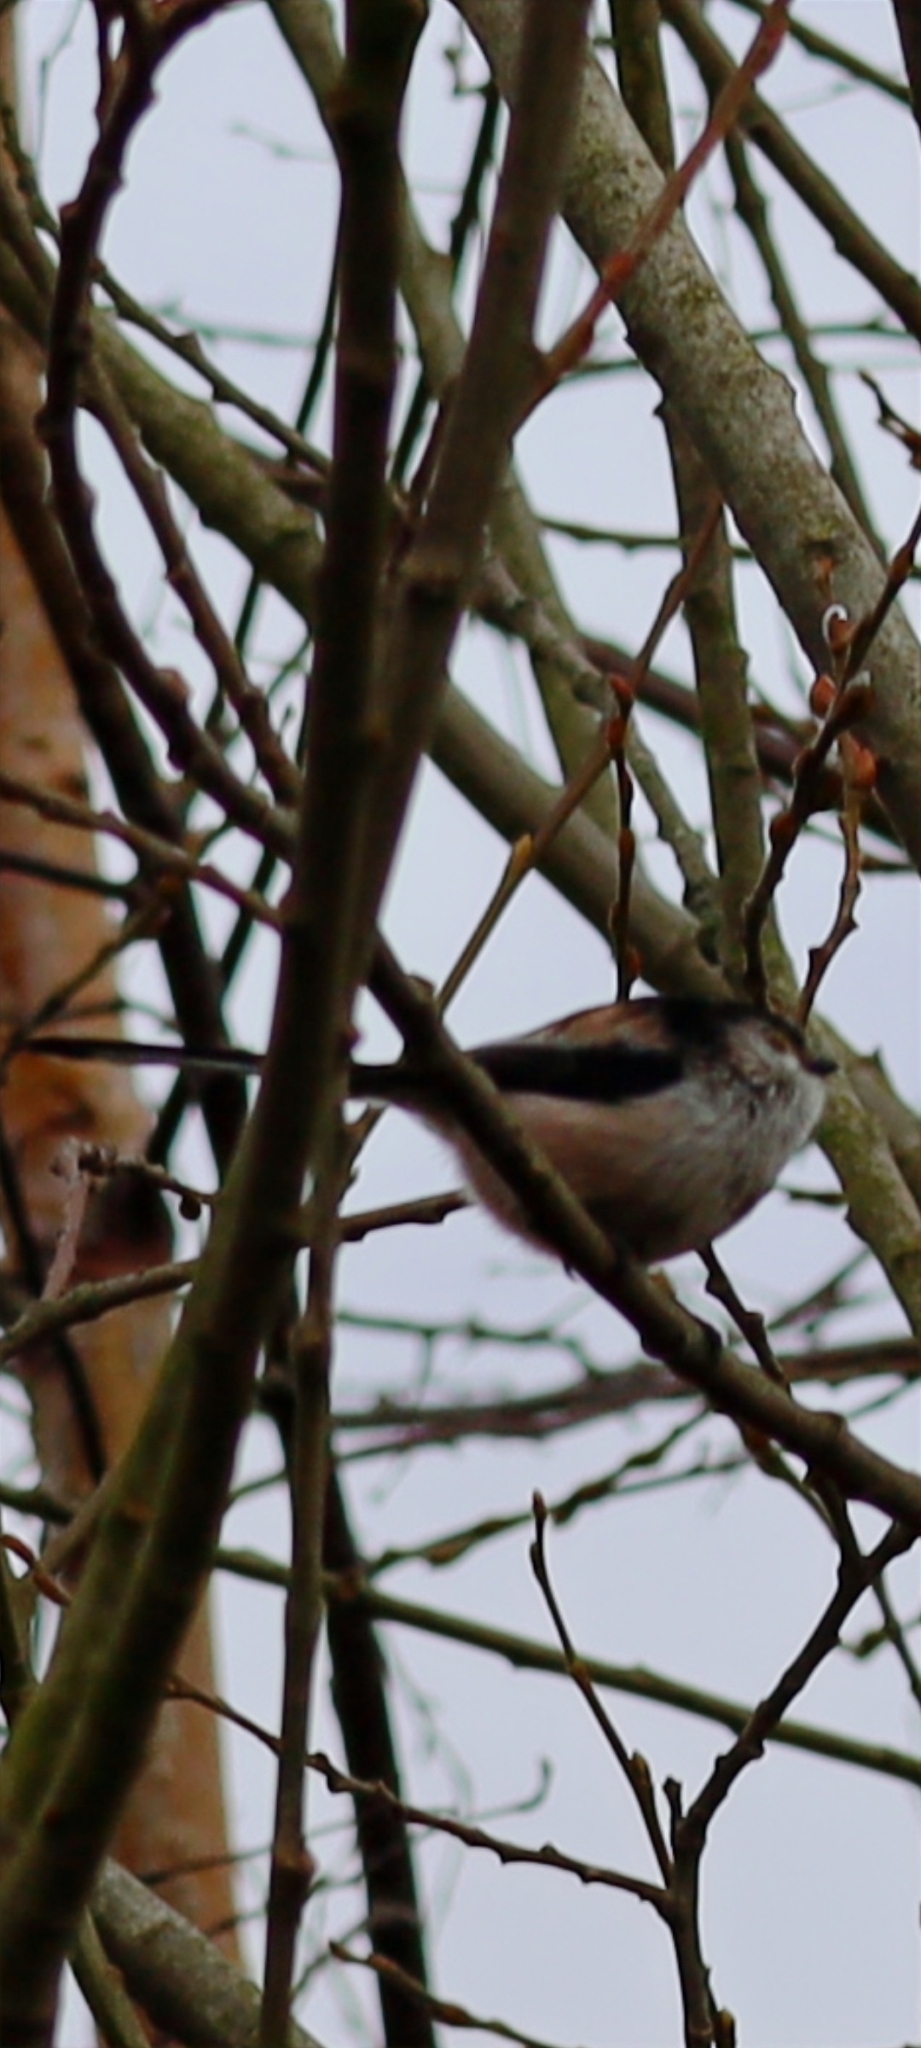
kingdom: Animalia
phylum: Chordata
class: Aves
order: Passeriformes
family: Aegithalidae
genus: Aegithalos
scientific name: Aegithalos caudatus
